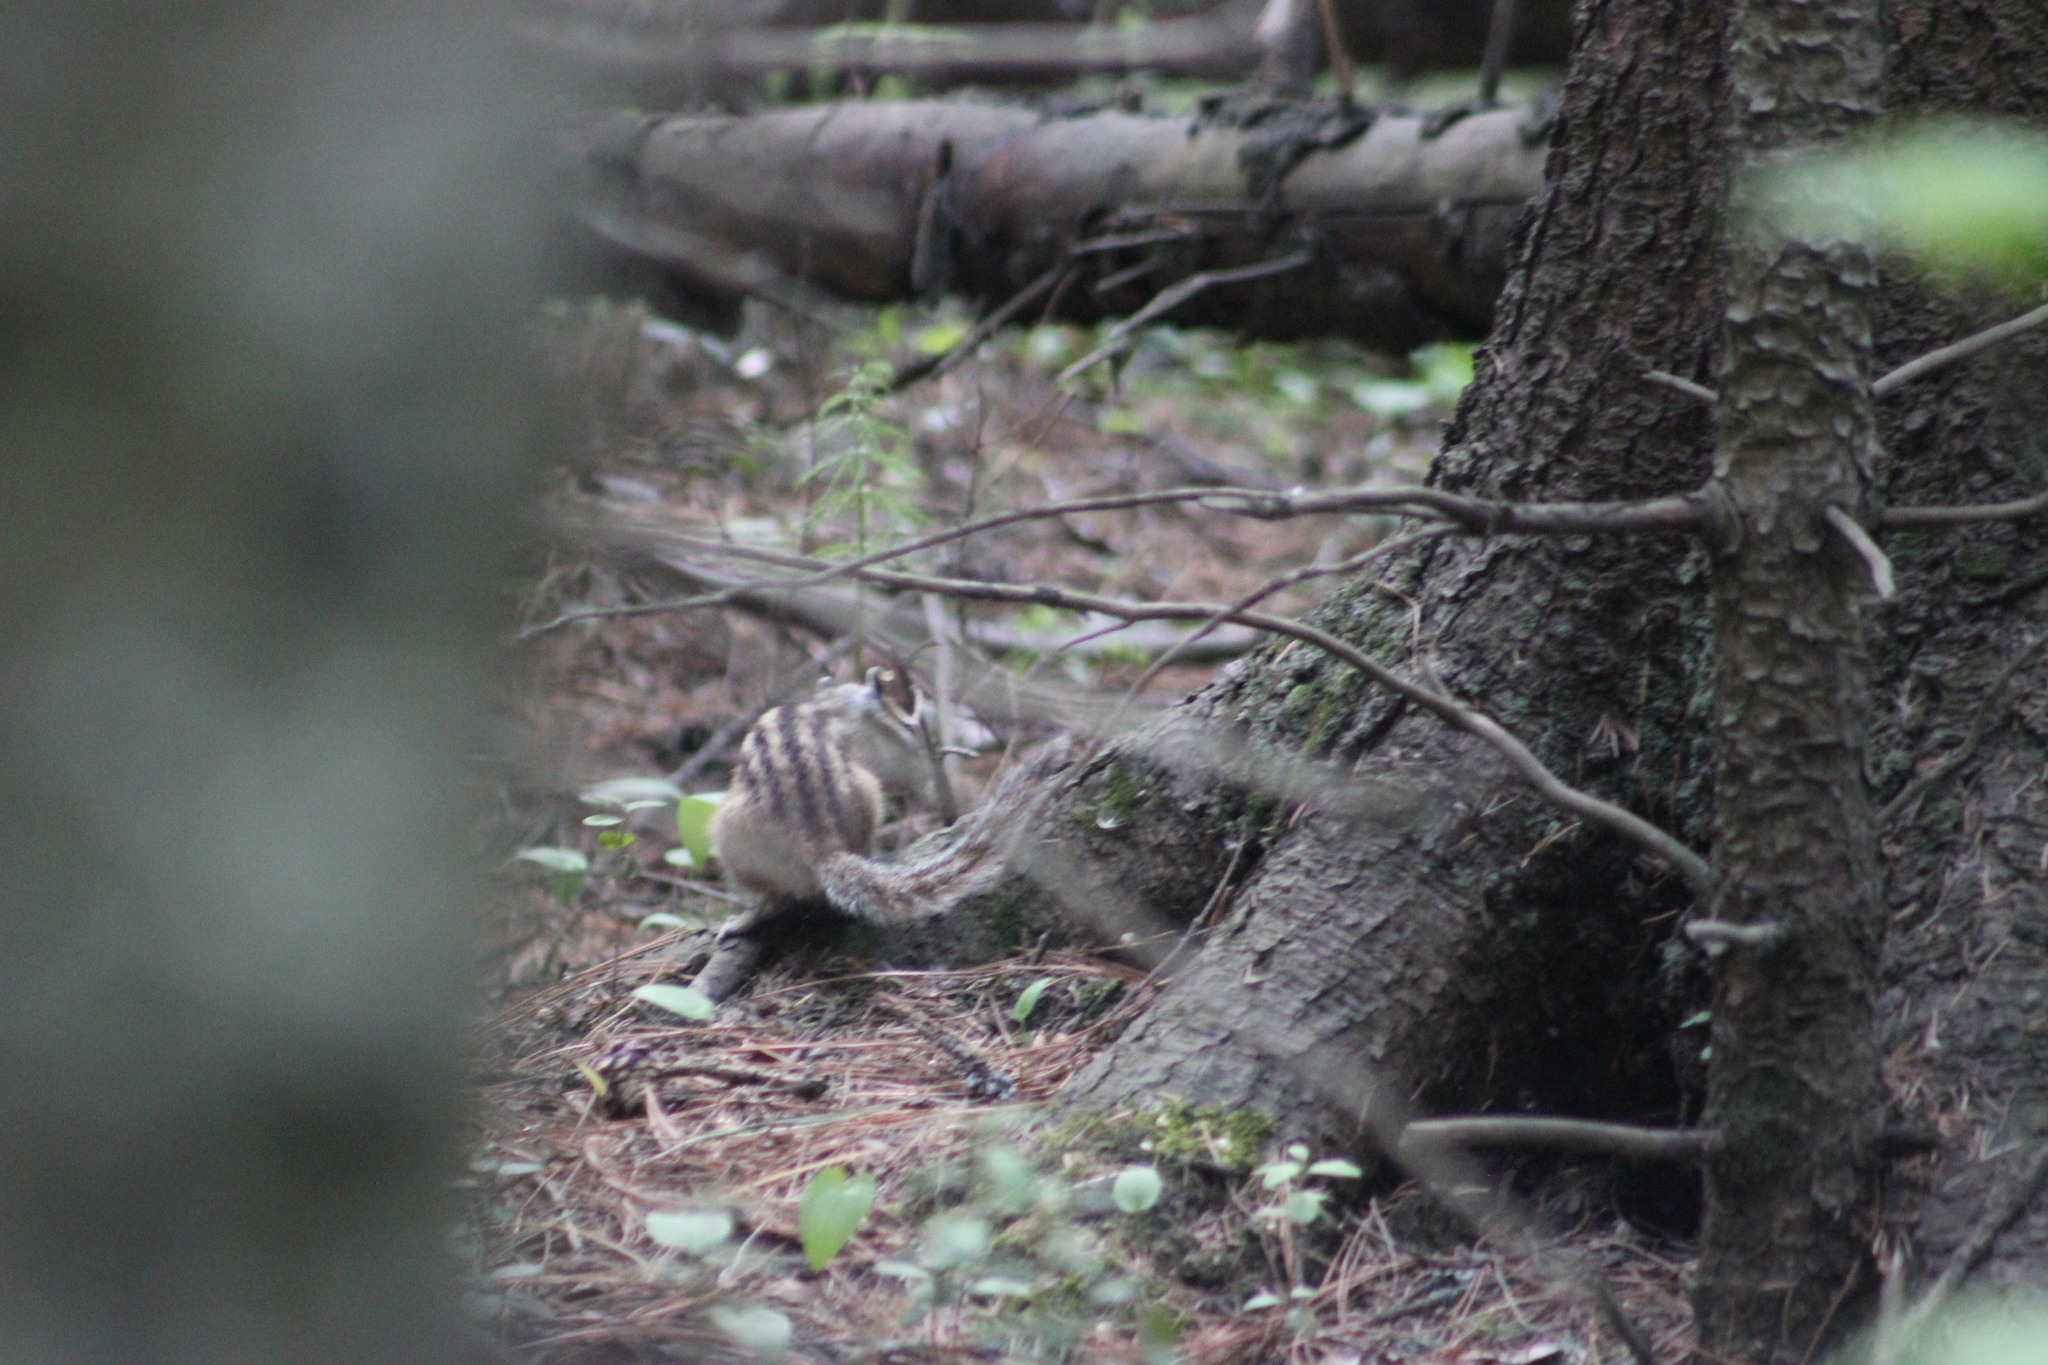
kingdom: Animalia
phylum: Chordata
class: Mammalia
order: Rodentia
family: Sciuridae
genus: Tamias
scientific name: Tamias sibiricus
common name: Siberian chipmunk
